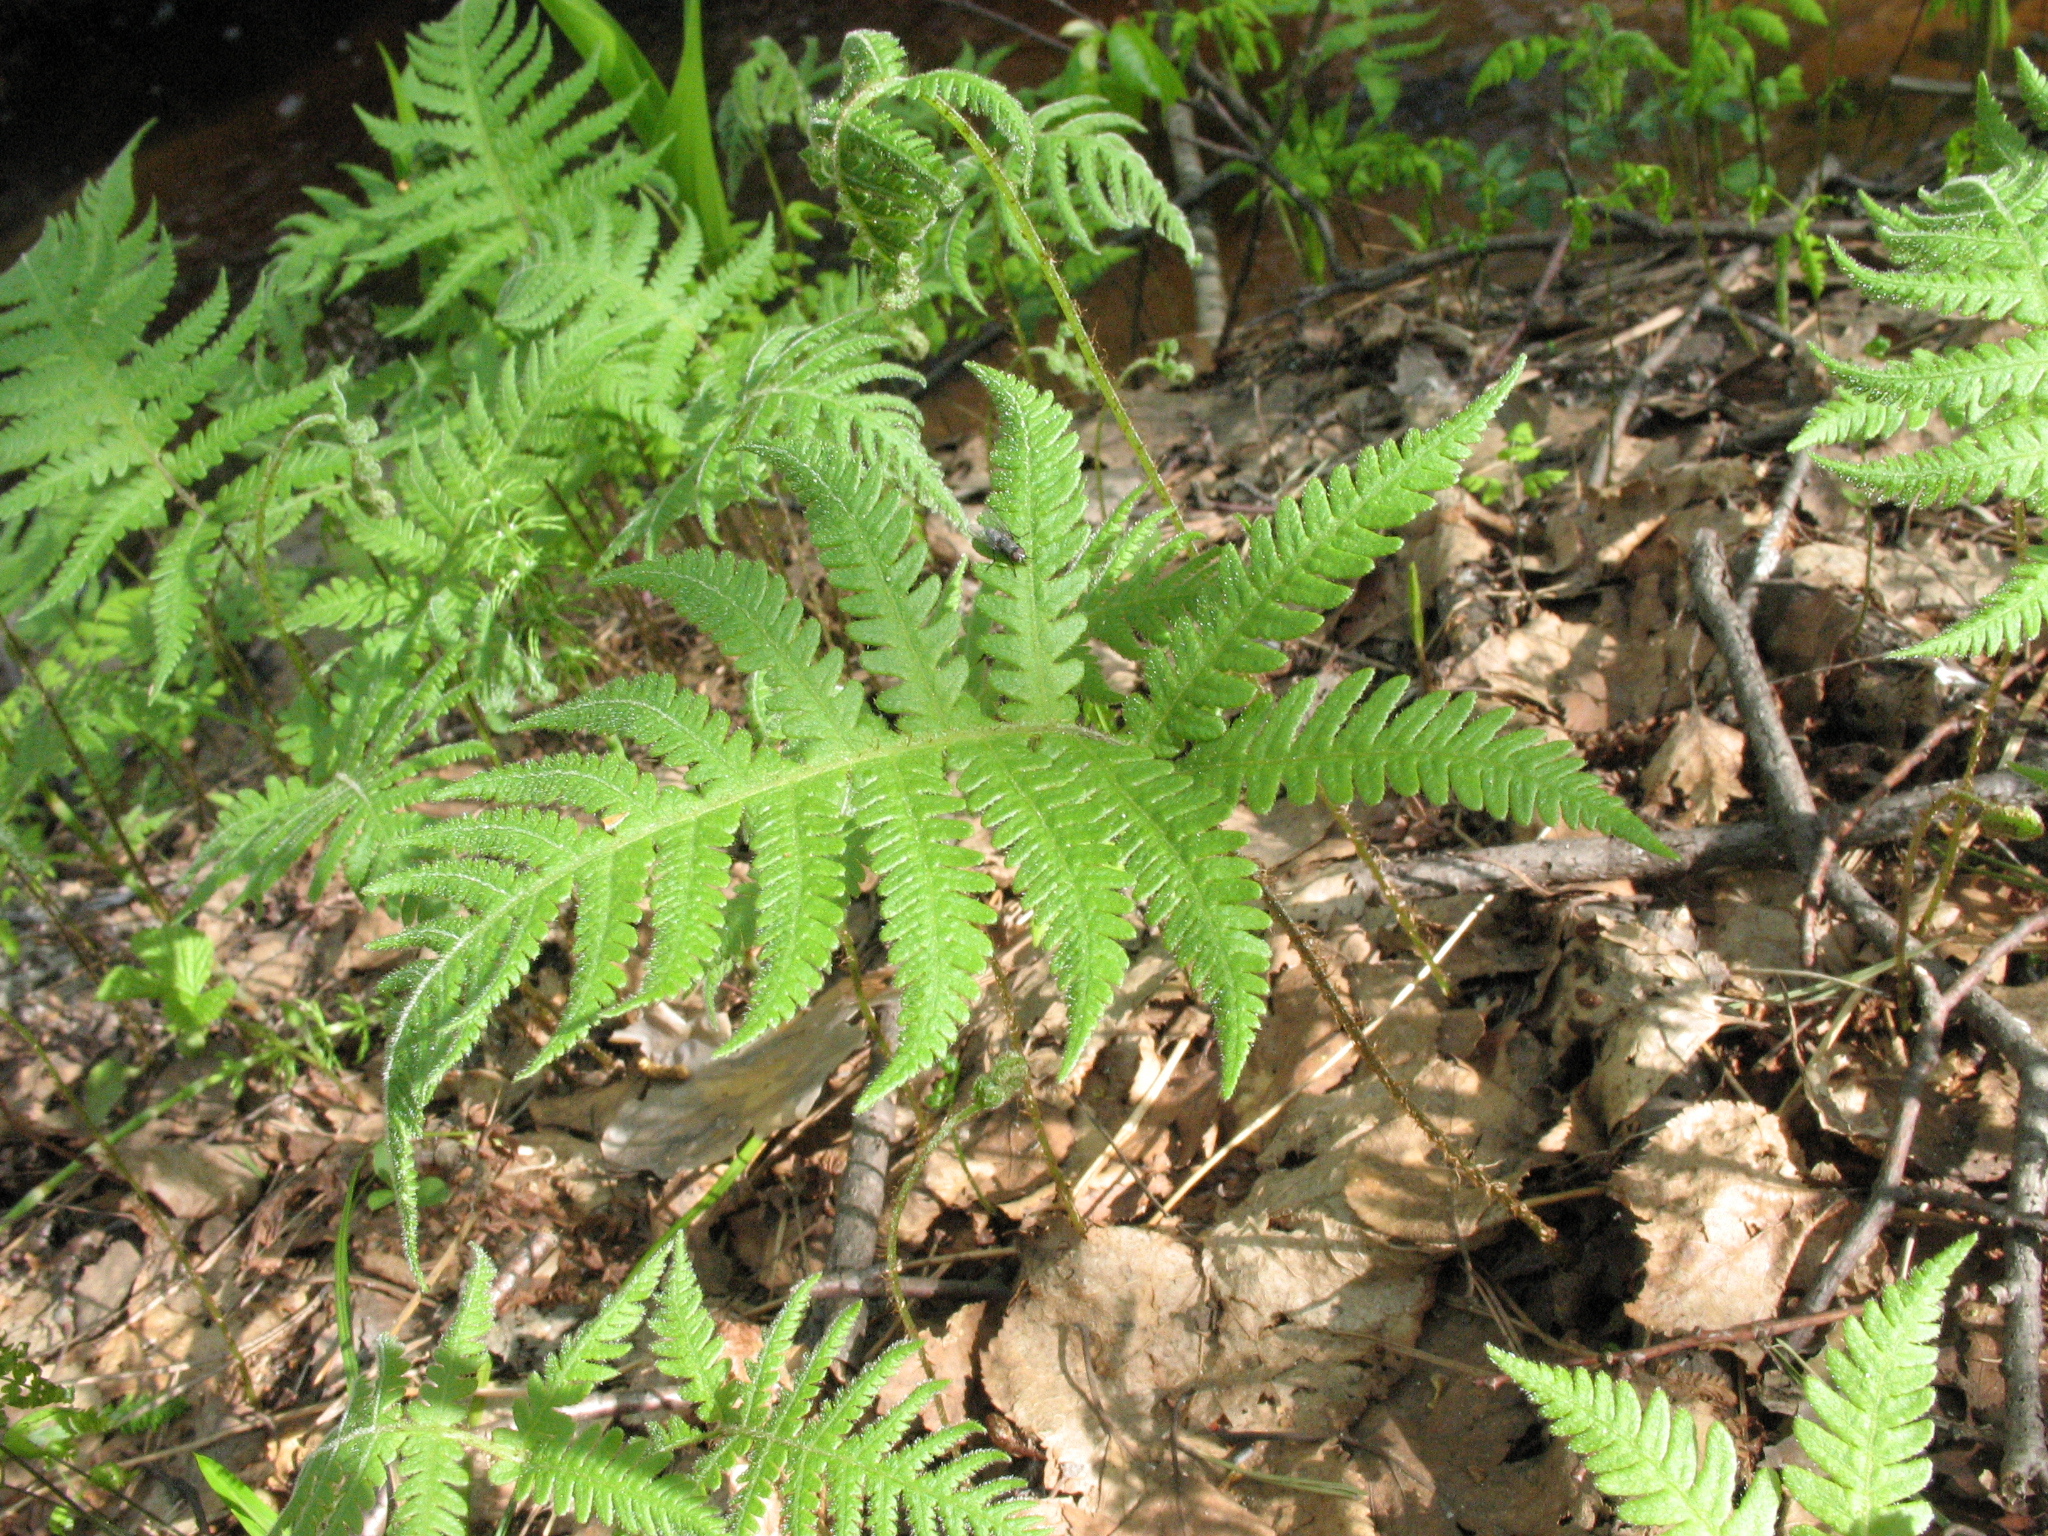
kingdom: Plantae
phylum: Tracheophyta
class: Polypodiopsida
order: Polypodiales
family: Thelypteridaceae
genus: Phegopteris
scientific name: Phegopteris connectilis
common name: Beech fern
